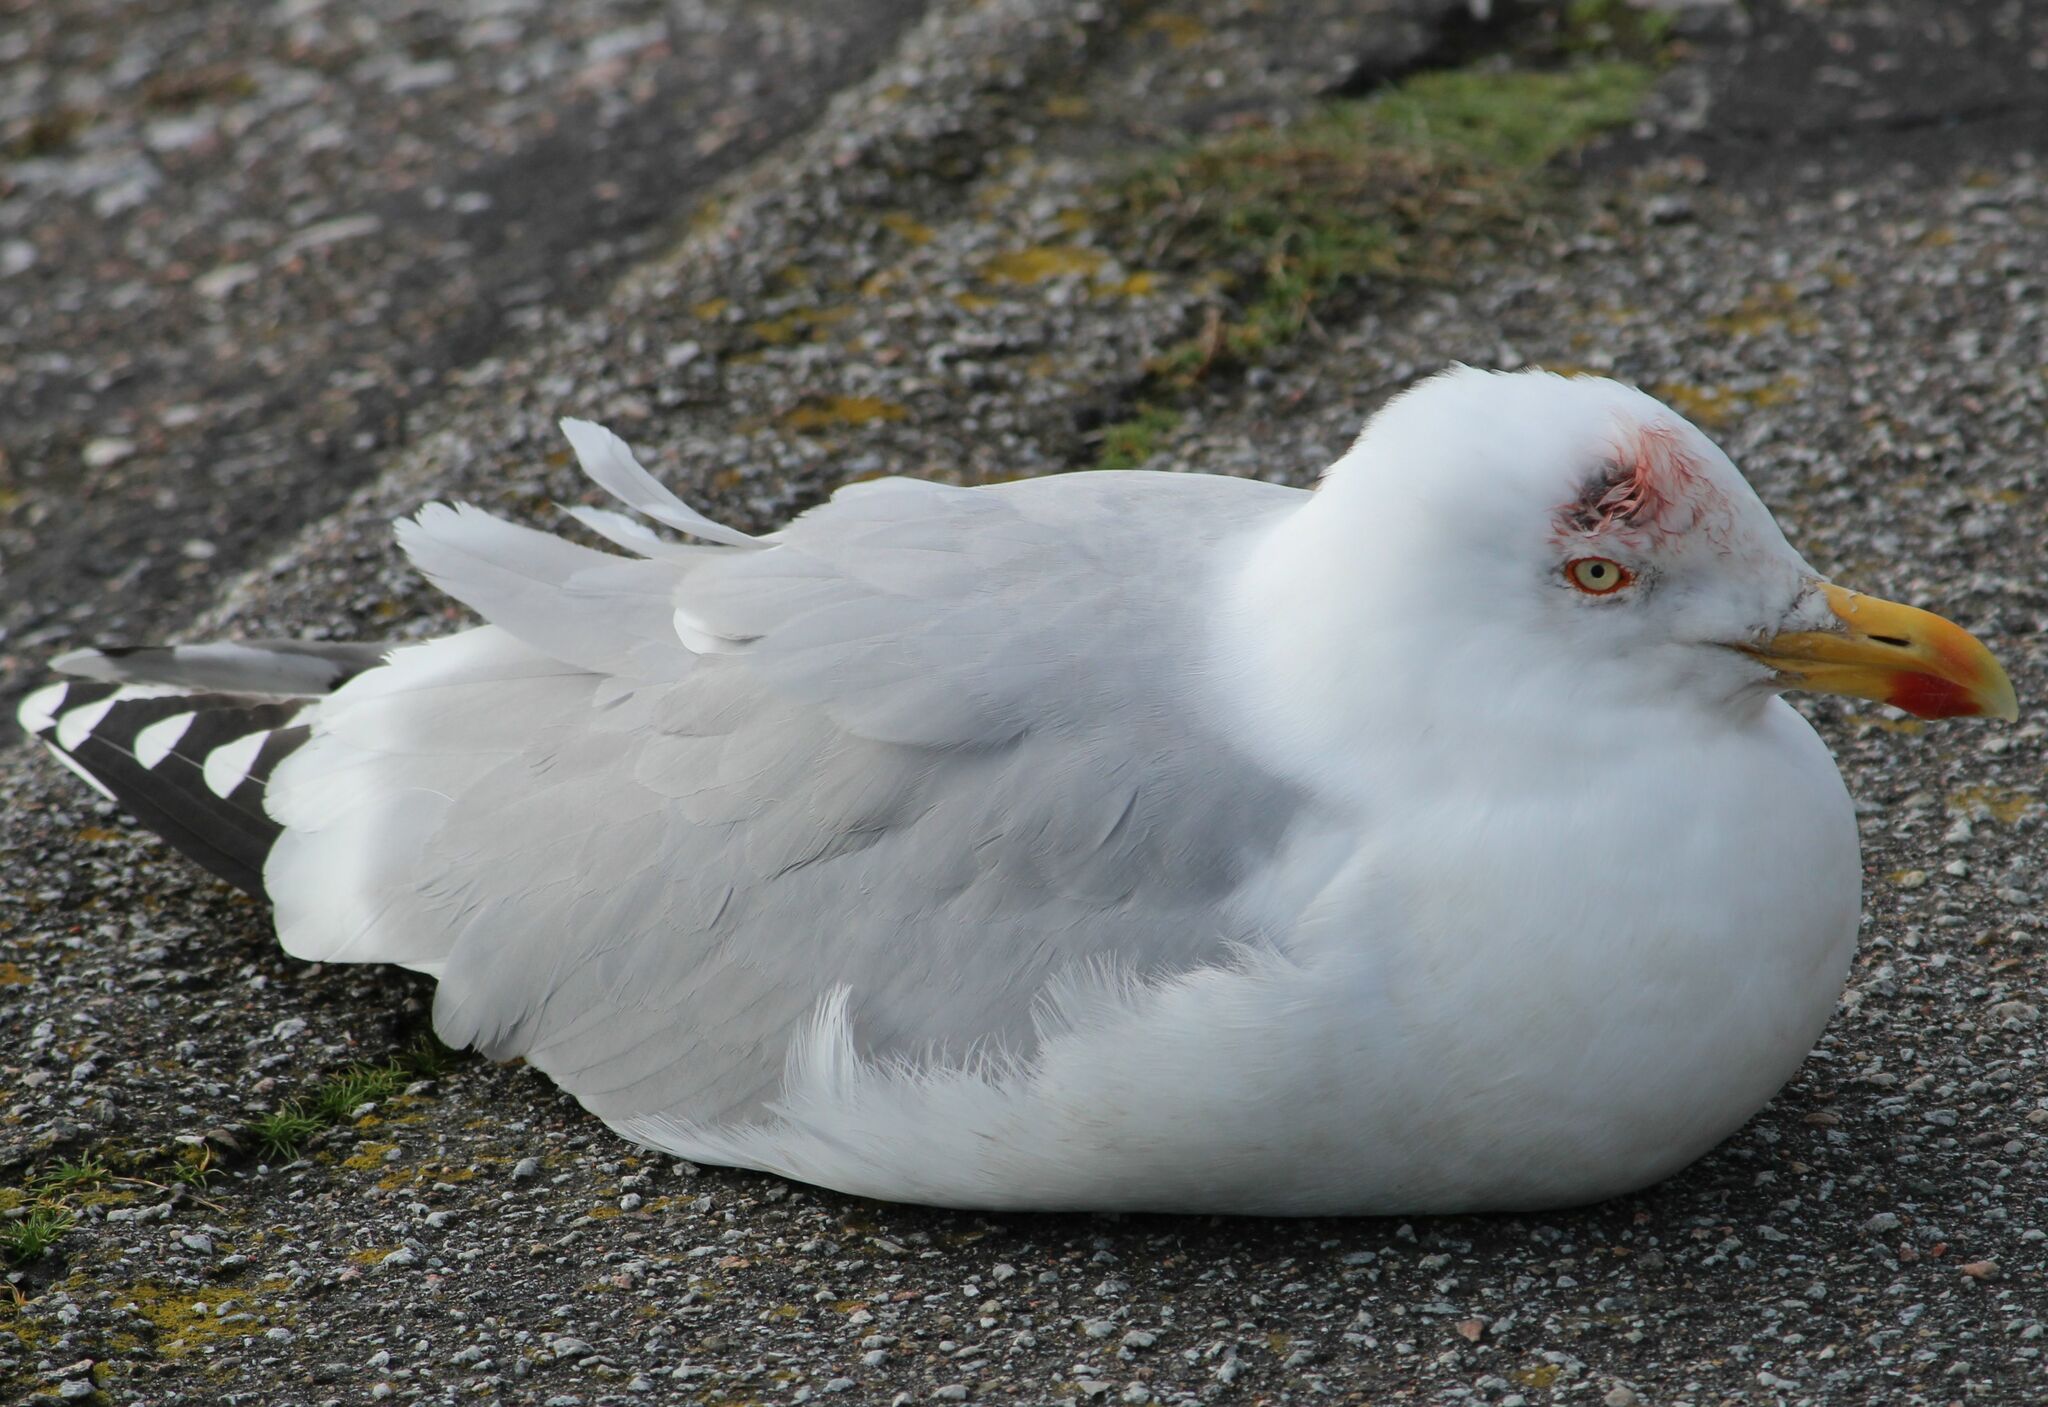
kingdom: Animalia
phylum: Chordata
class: Aves
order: Charadriiformes
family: Laridae
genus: Larus
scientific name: Larus argentatus
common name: Herring gull
